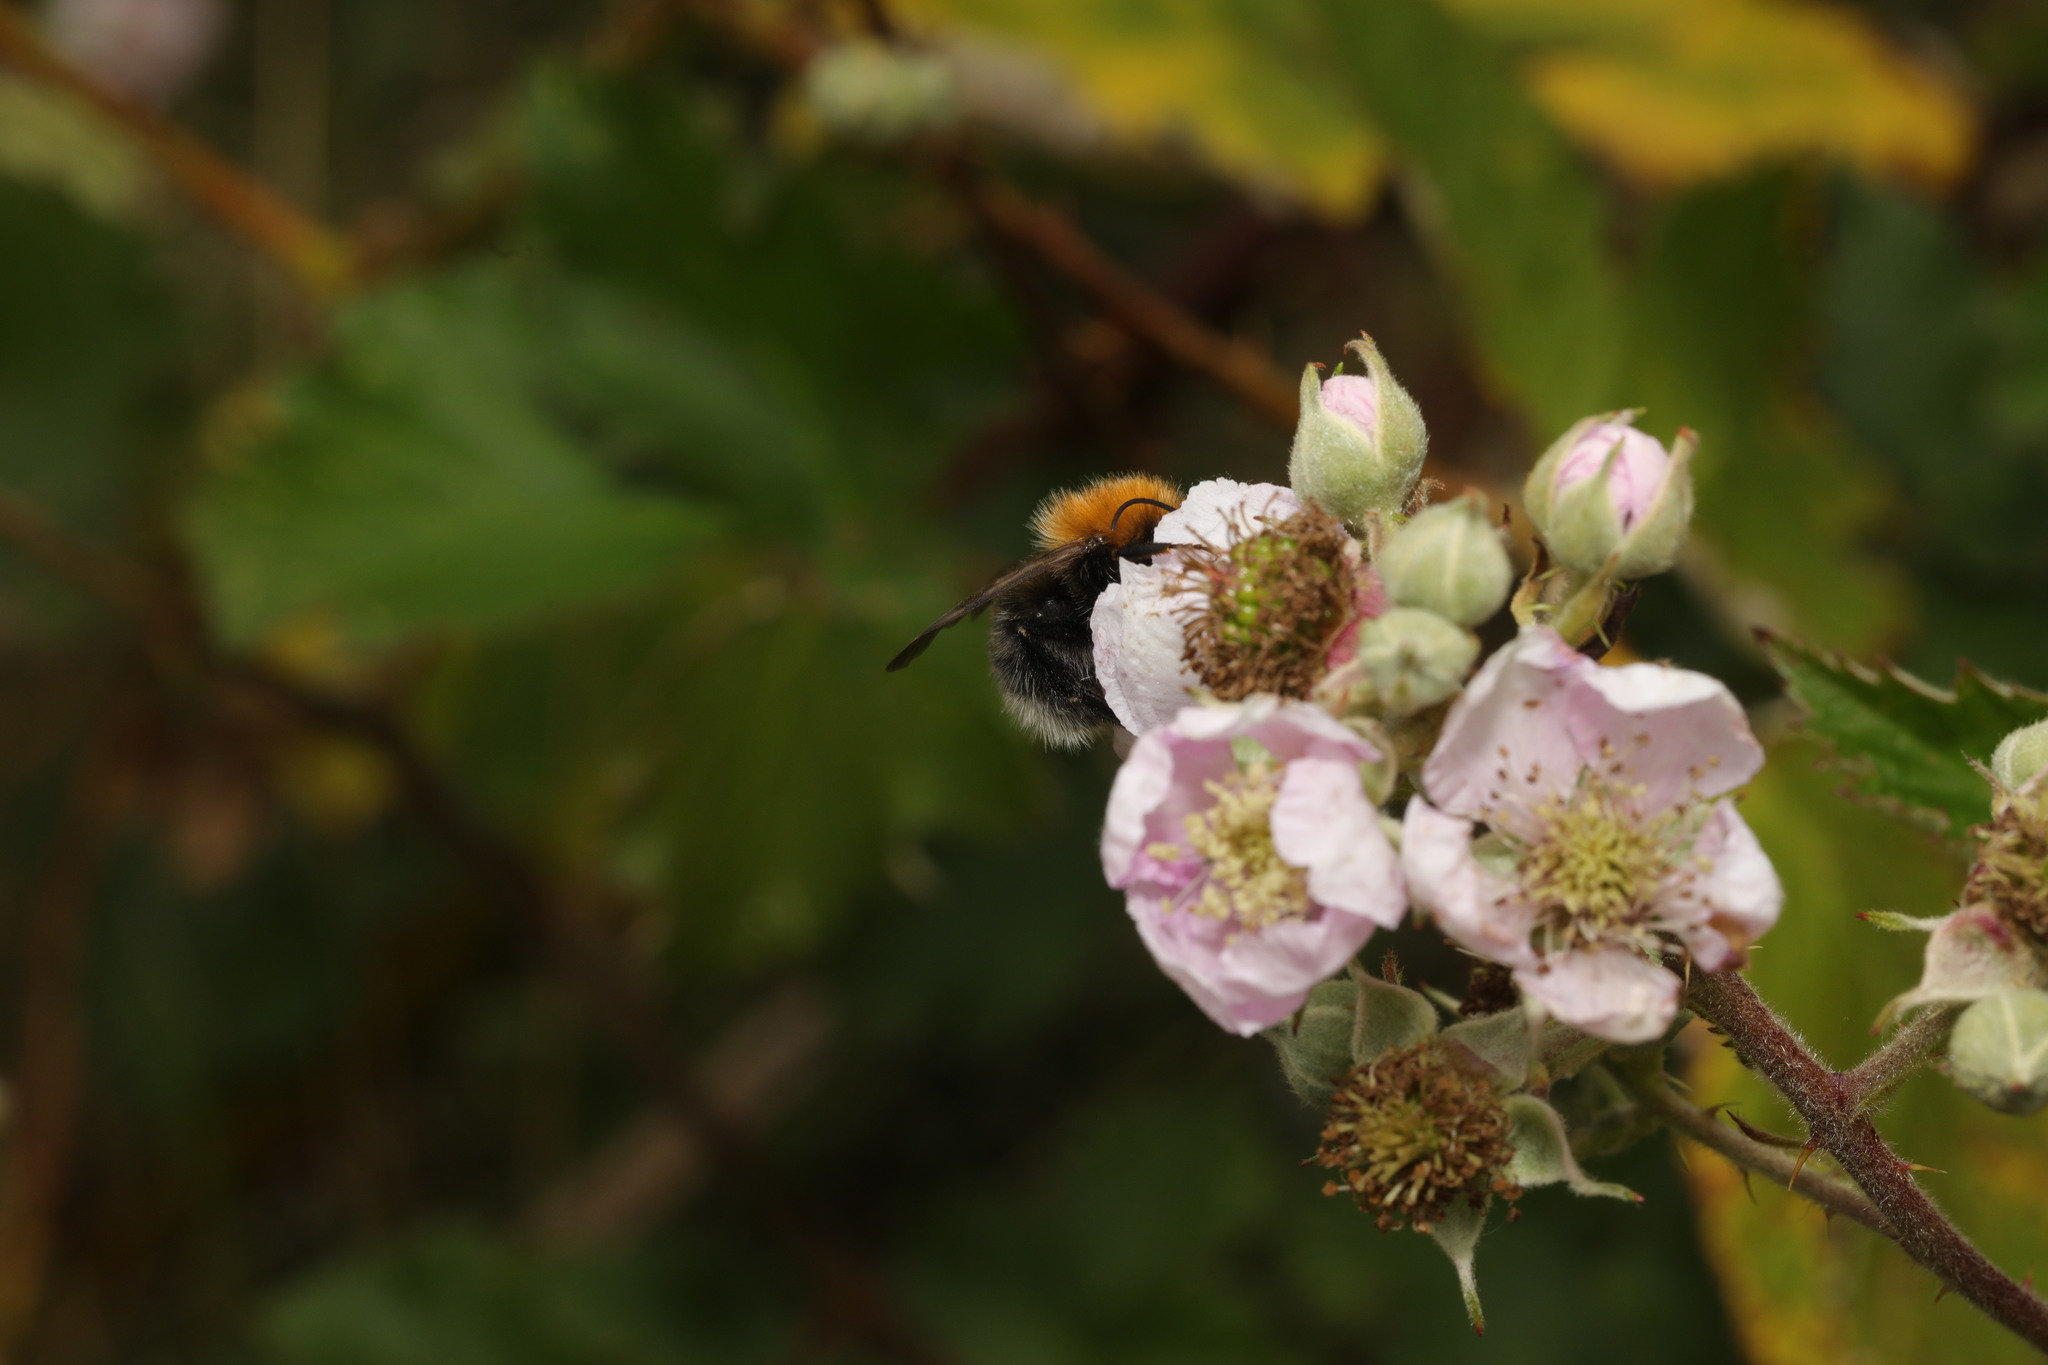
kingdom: Animalia
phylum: Arthropoda
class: Insecta
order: Hymenoptera
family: Apidae
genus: Bombus
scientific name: Bombus hypnorum
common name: New garden bumblebee
